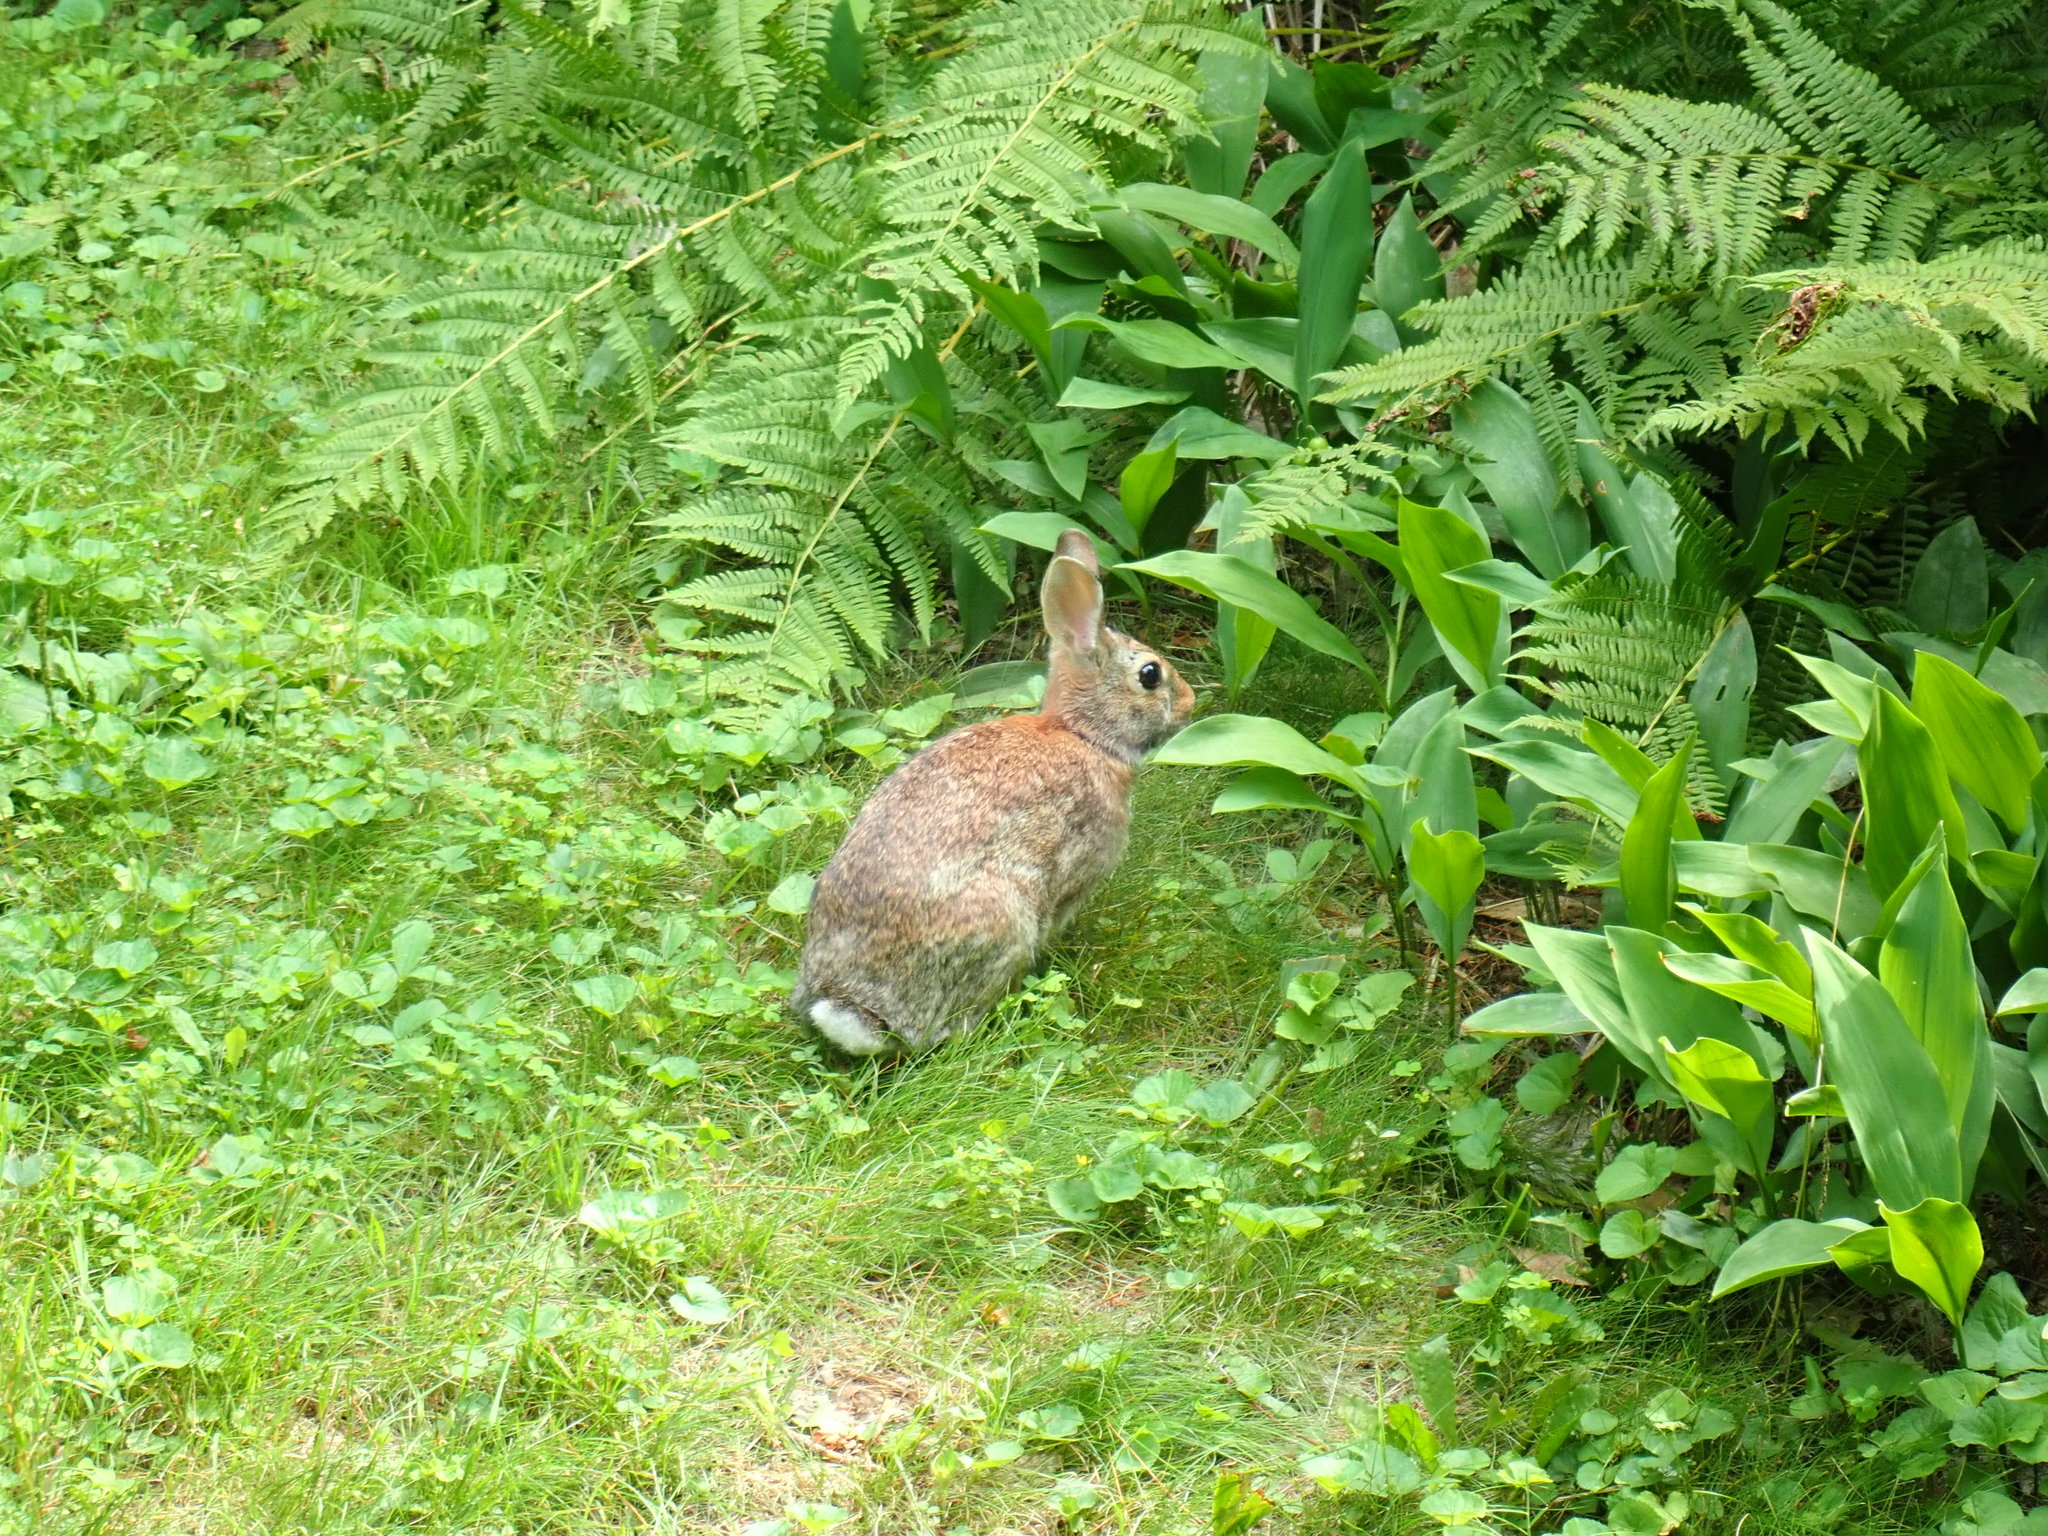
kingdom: Animalia
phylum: Chordata
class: Mammalia
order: Lagomorpha
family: Leporidae
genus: Sylvilagus
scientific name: Sylvilagus floridanus
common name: Eastern cottontail
